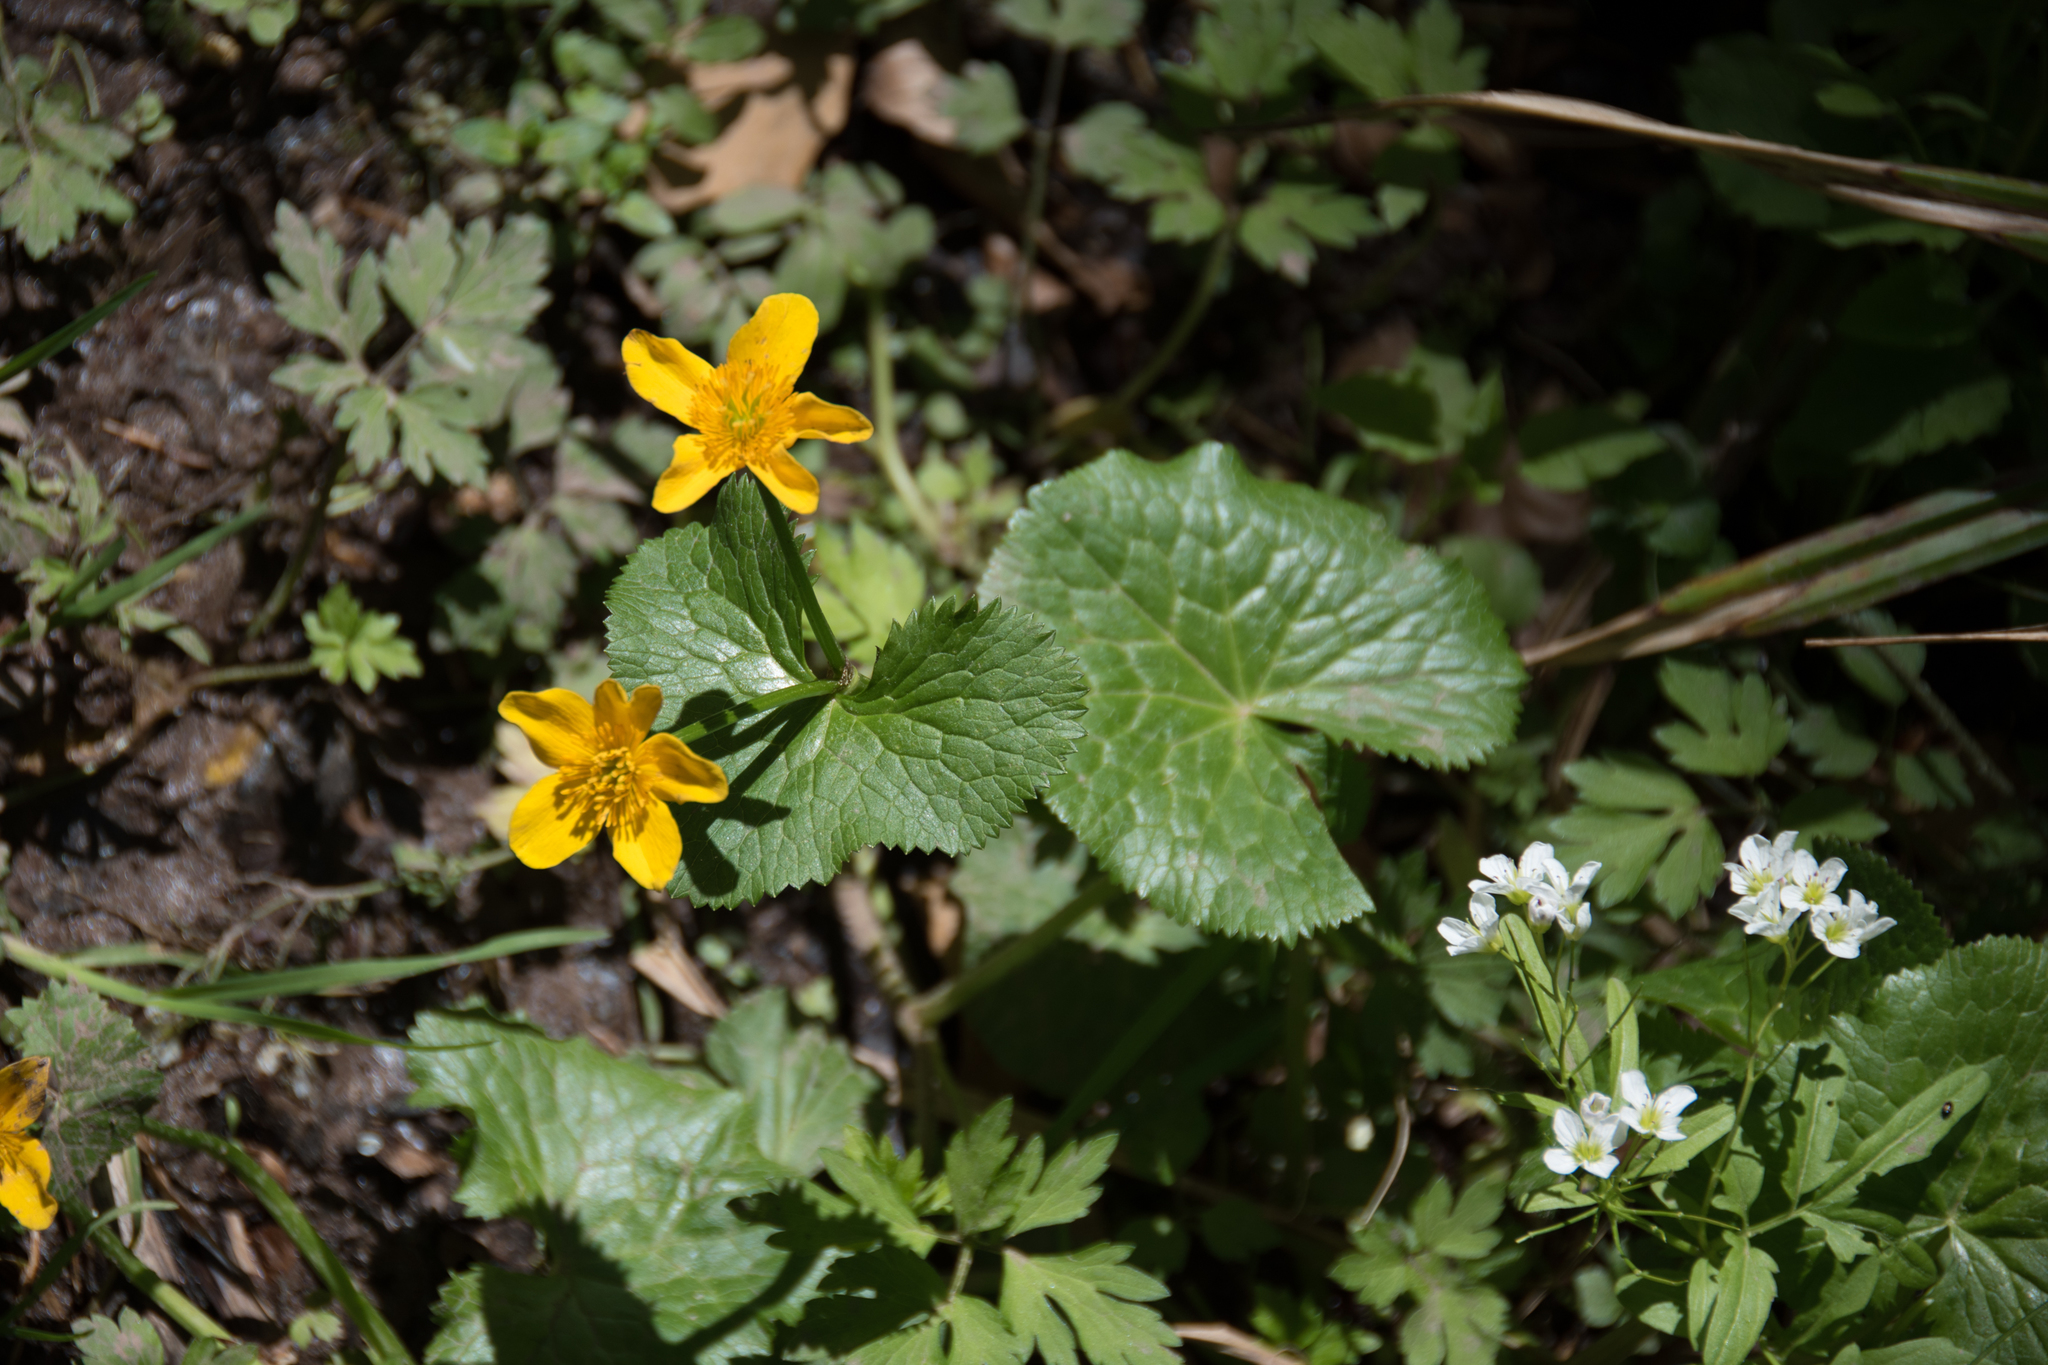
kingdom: Plantae
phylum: Tracheophyta
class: Magnoliopsida
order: Ranunculales
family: Ranunculaceae
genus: Caltha
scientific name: Caltha palustris
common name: Marsh marigold
